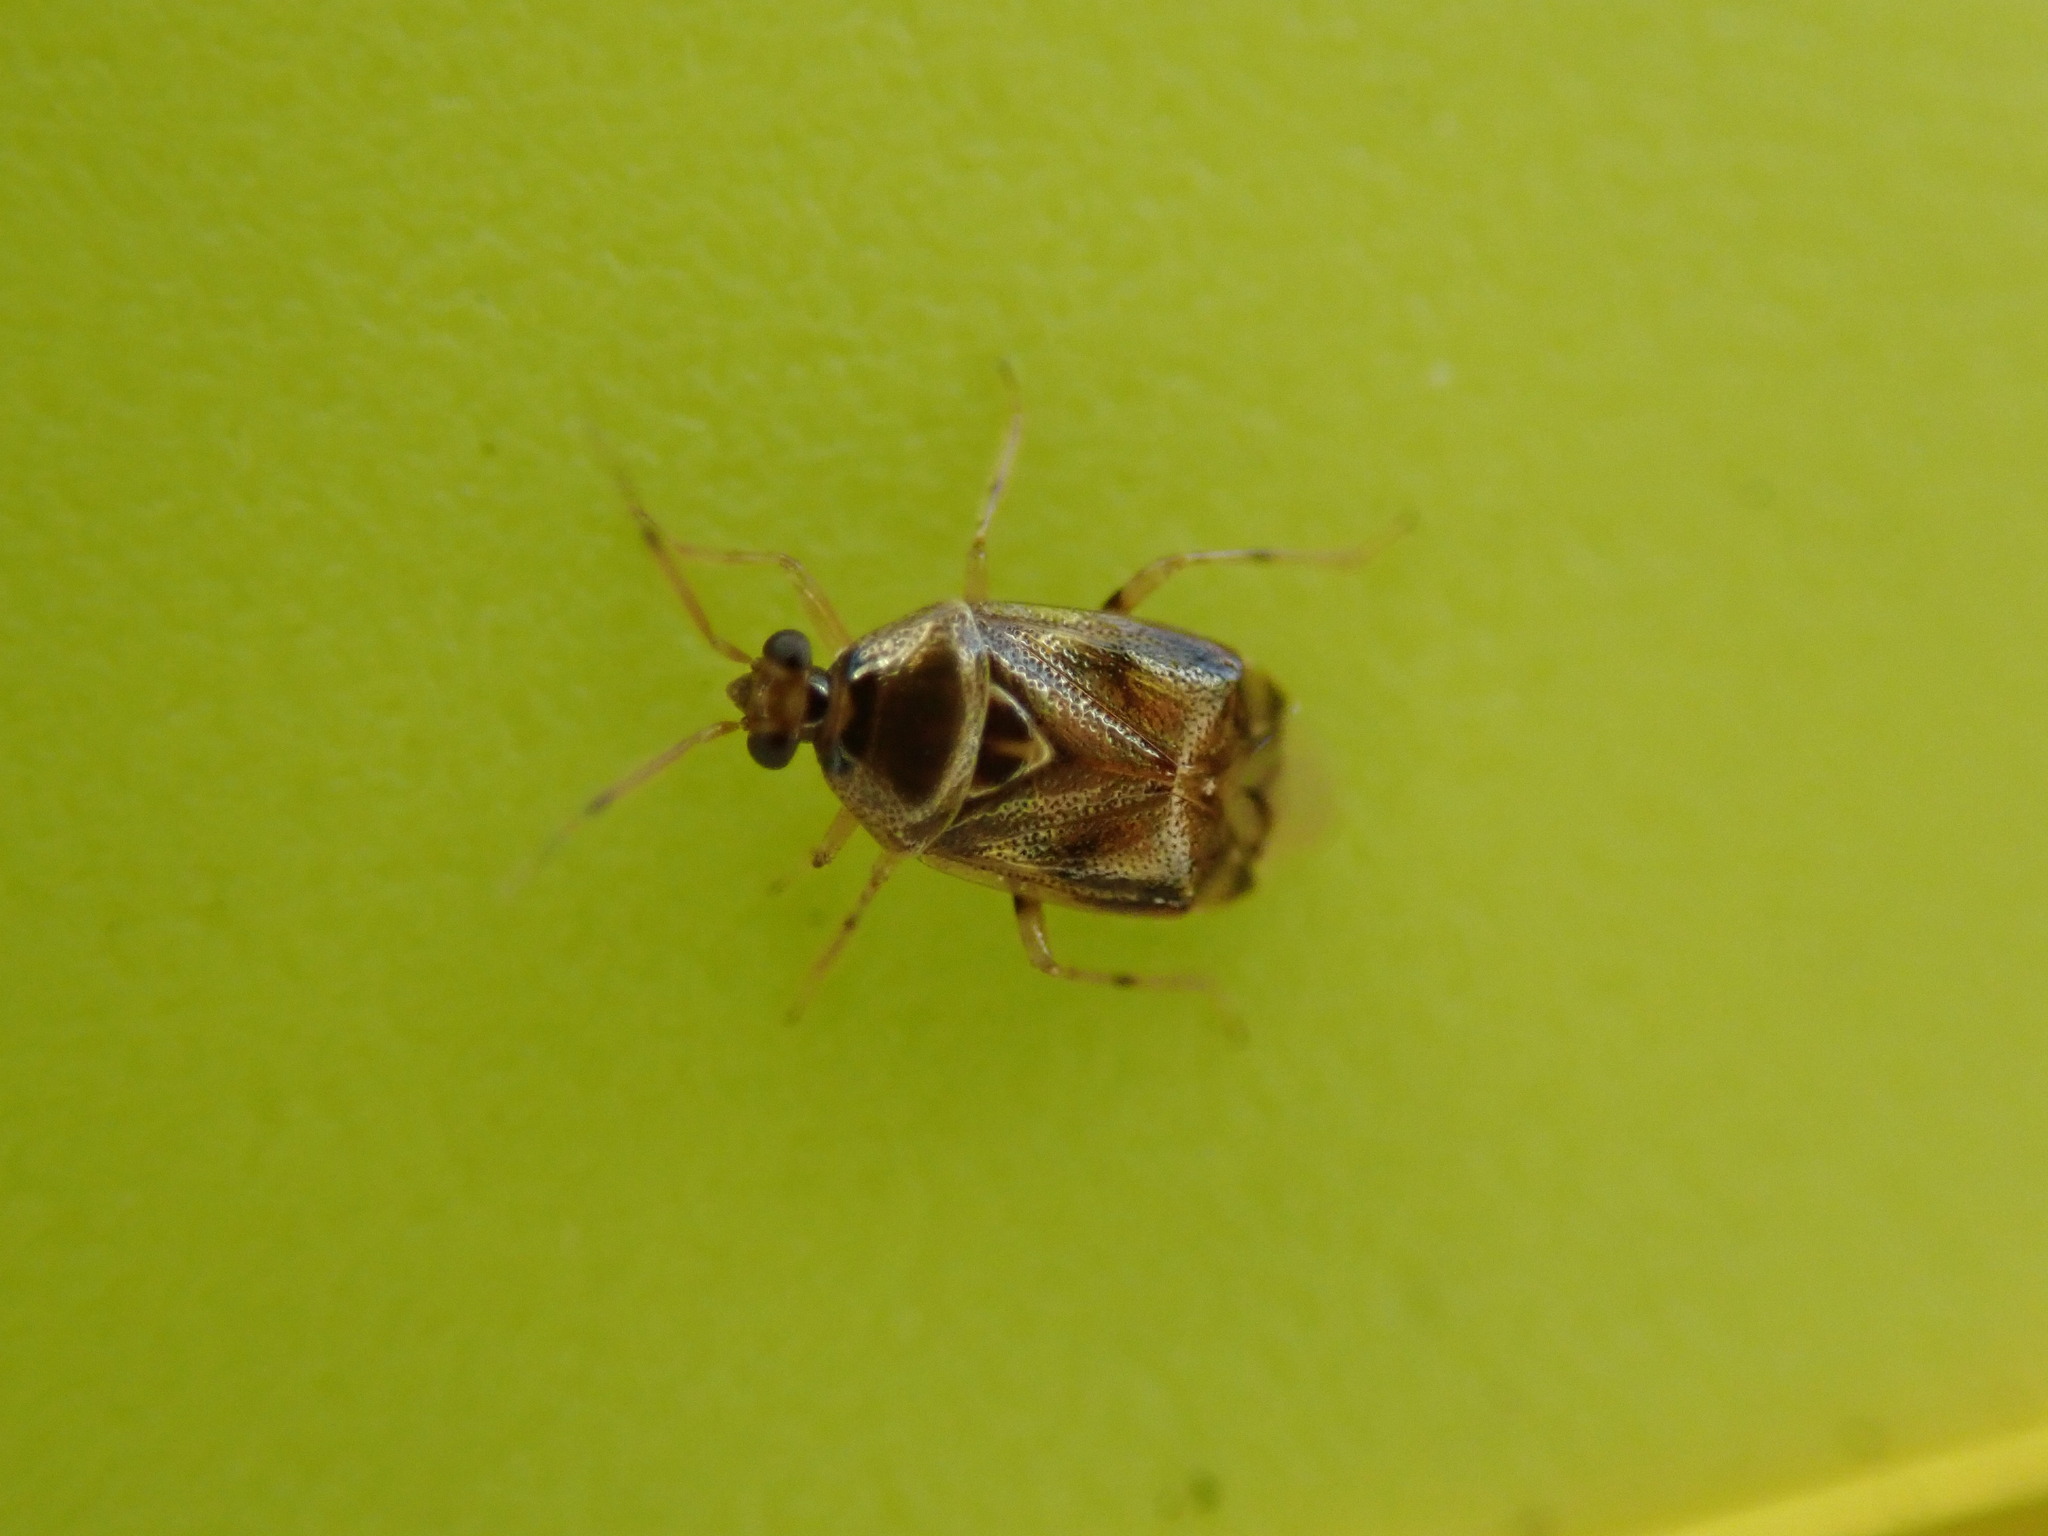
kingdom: Animalia
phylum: Arthropoda
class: Insecta
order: Hemiptera
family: Miridae
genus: Deraeocoris
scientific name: Deraeocoris lutescens
